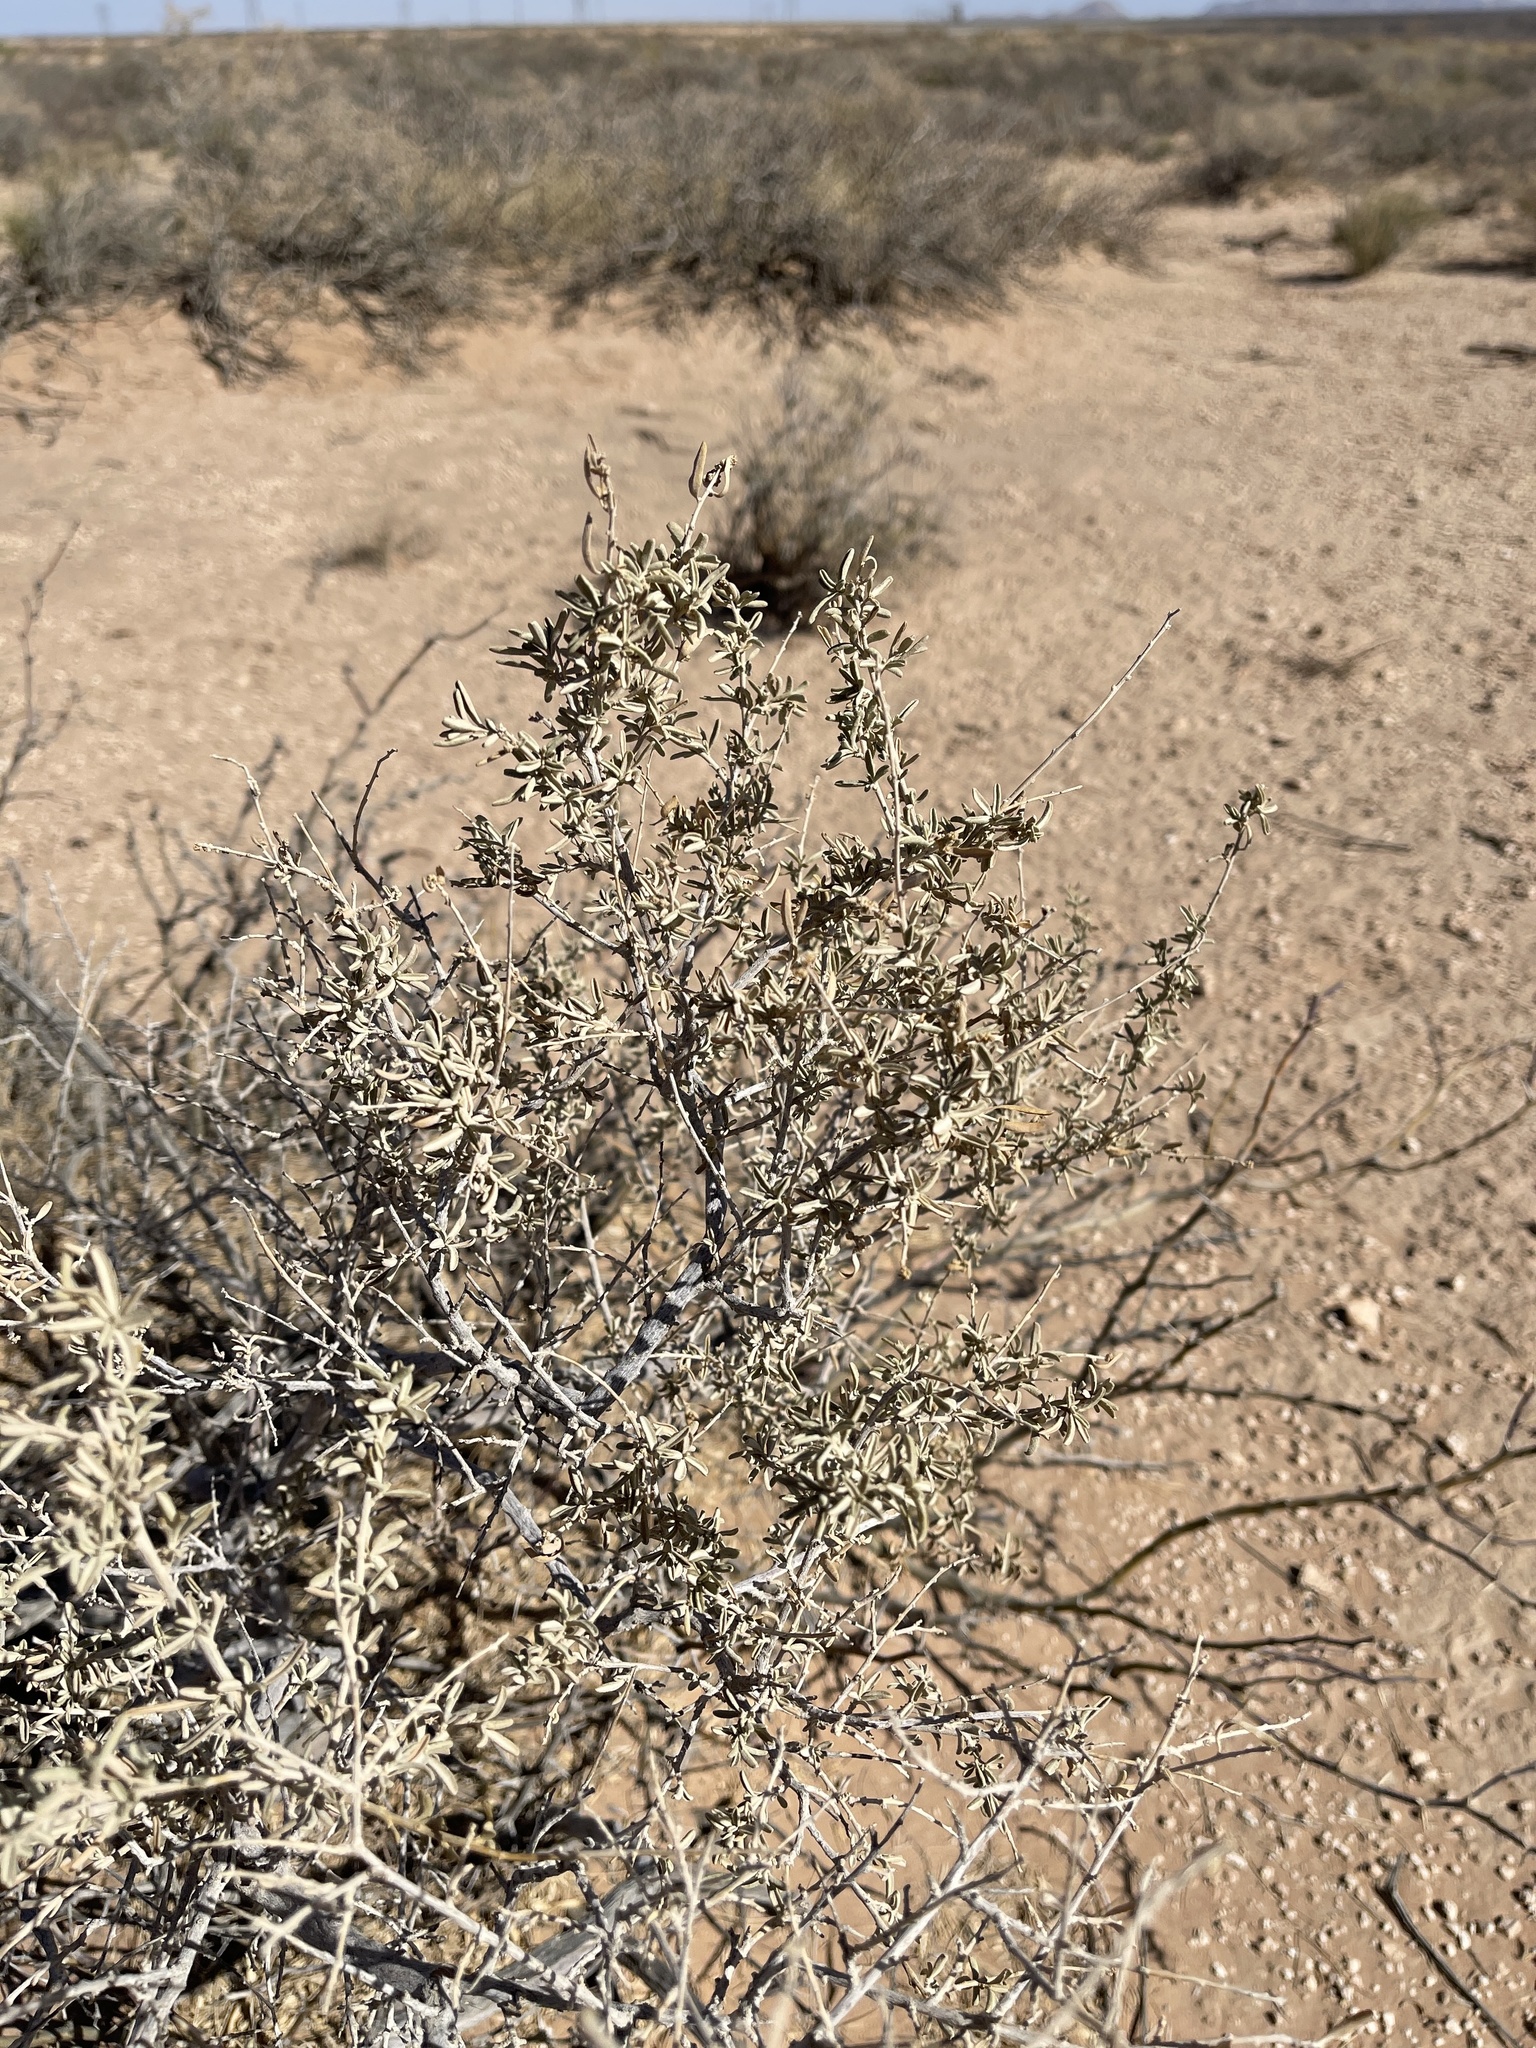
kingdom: Plantae
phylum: Tracheophyta
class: Magnoliopsida
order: Caryophyllales
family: Amaranthaceae
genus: Atriplex
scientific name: Atriplex canescens
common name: Four-wing saltbush
